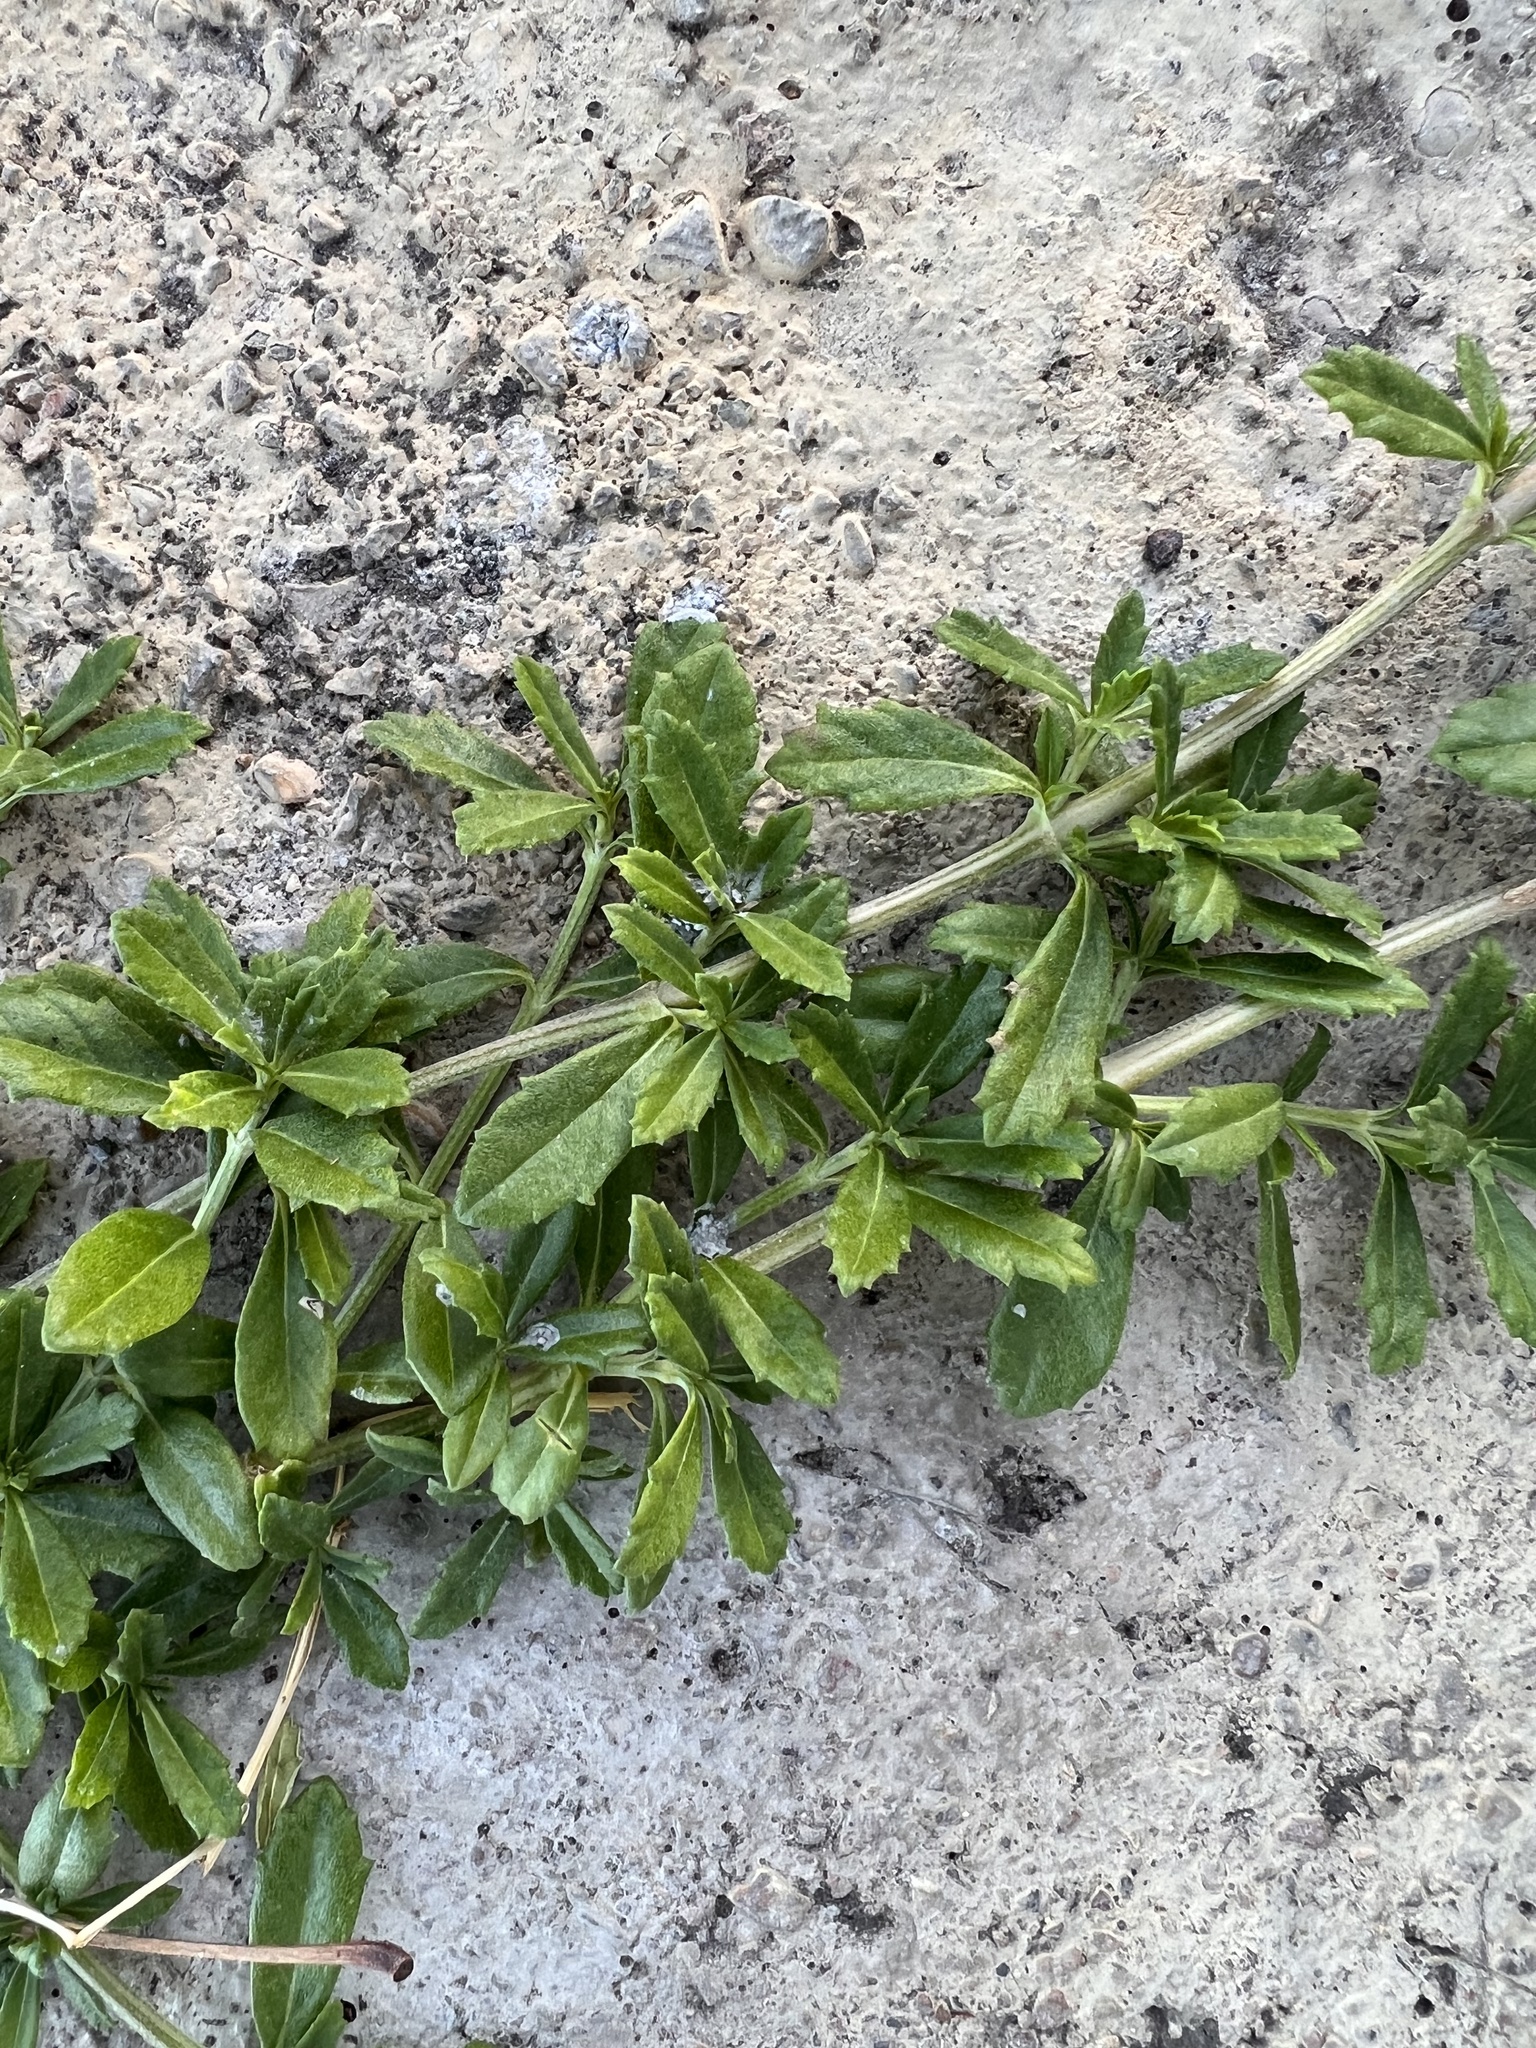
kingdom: Plantae
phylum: Tracheophyta
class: Magnoliopsida
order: Lamiales
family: Verbenaceae
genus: Phyla
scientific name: Phyla nodiflora
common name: Frogfruit
